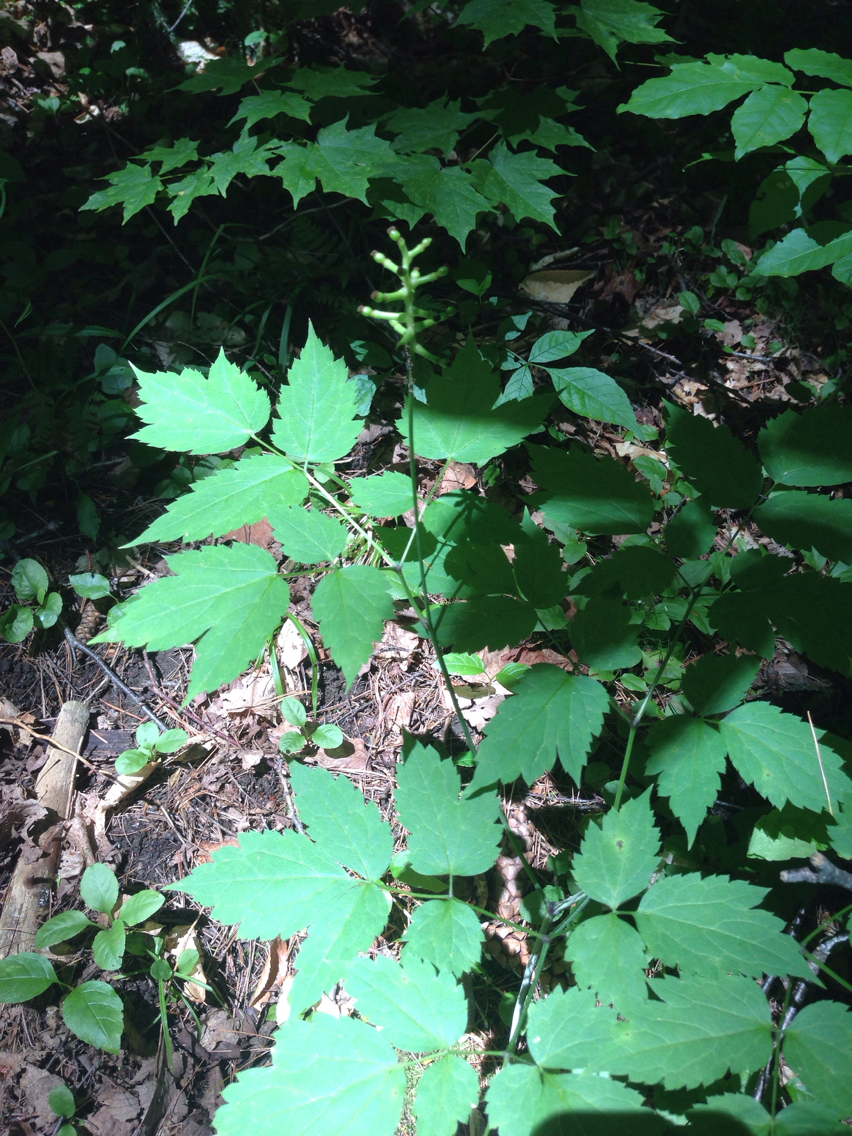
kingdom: Plantae
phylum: Tracheophyta
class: Magnoliopsida
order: Ranunculales
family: Ranunculaceae
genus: Actaea
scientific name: Actaea pachypoda
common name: Doll's-eyes
